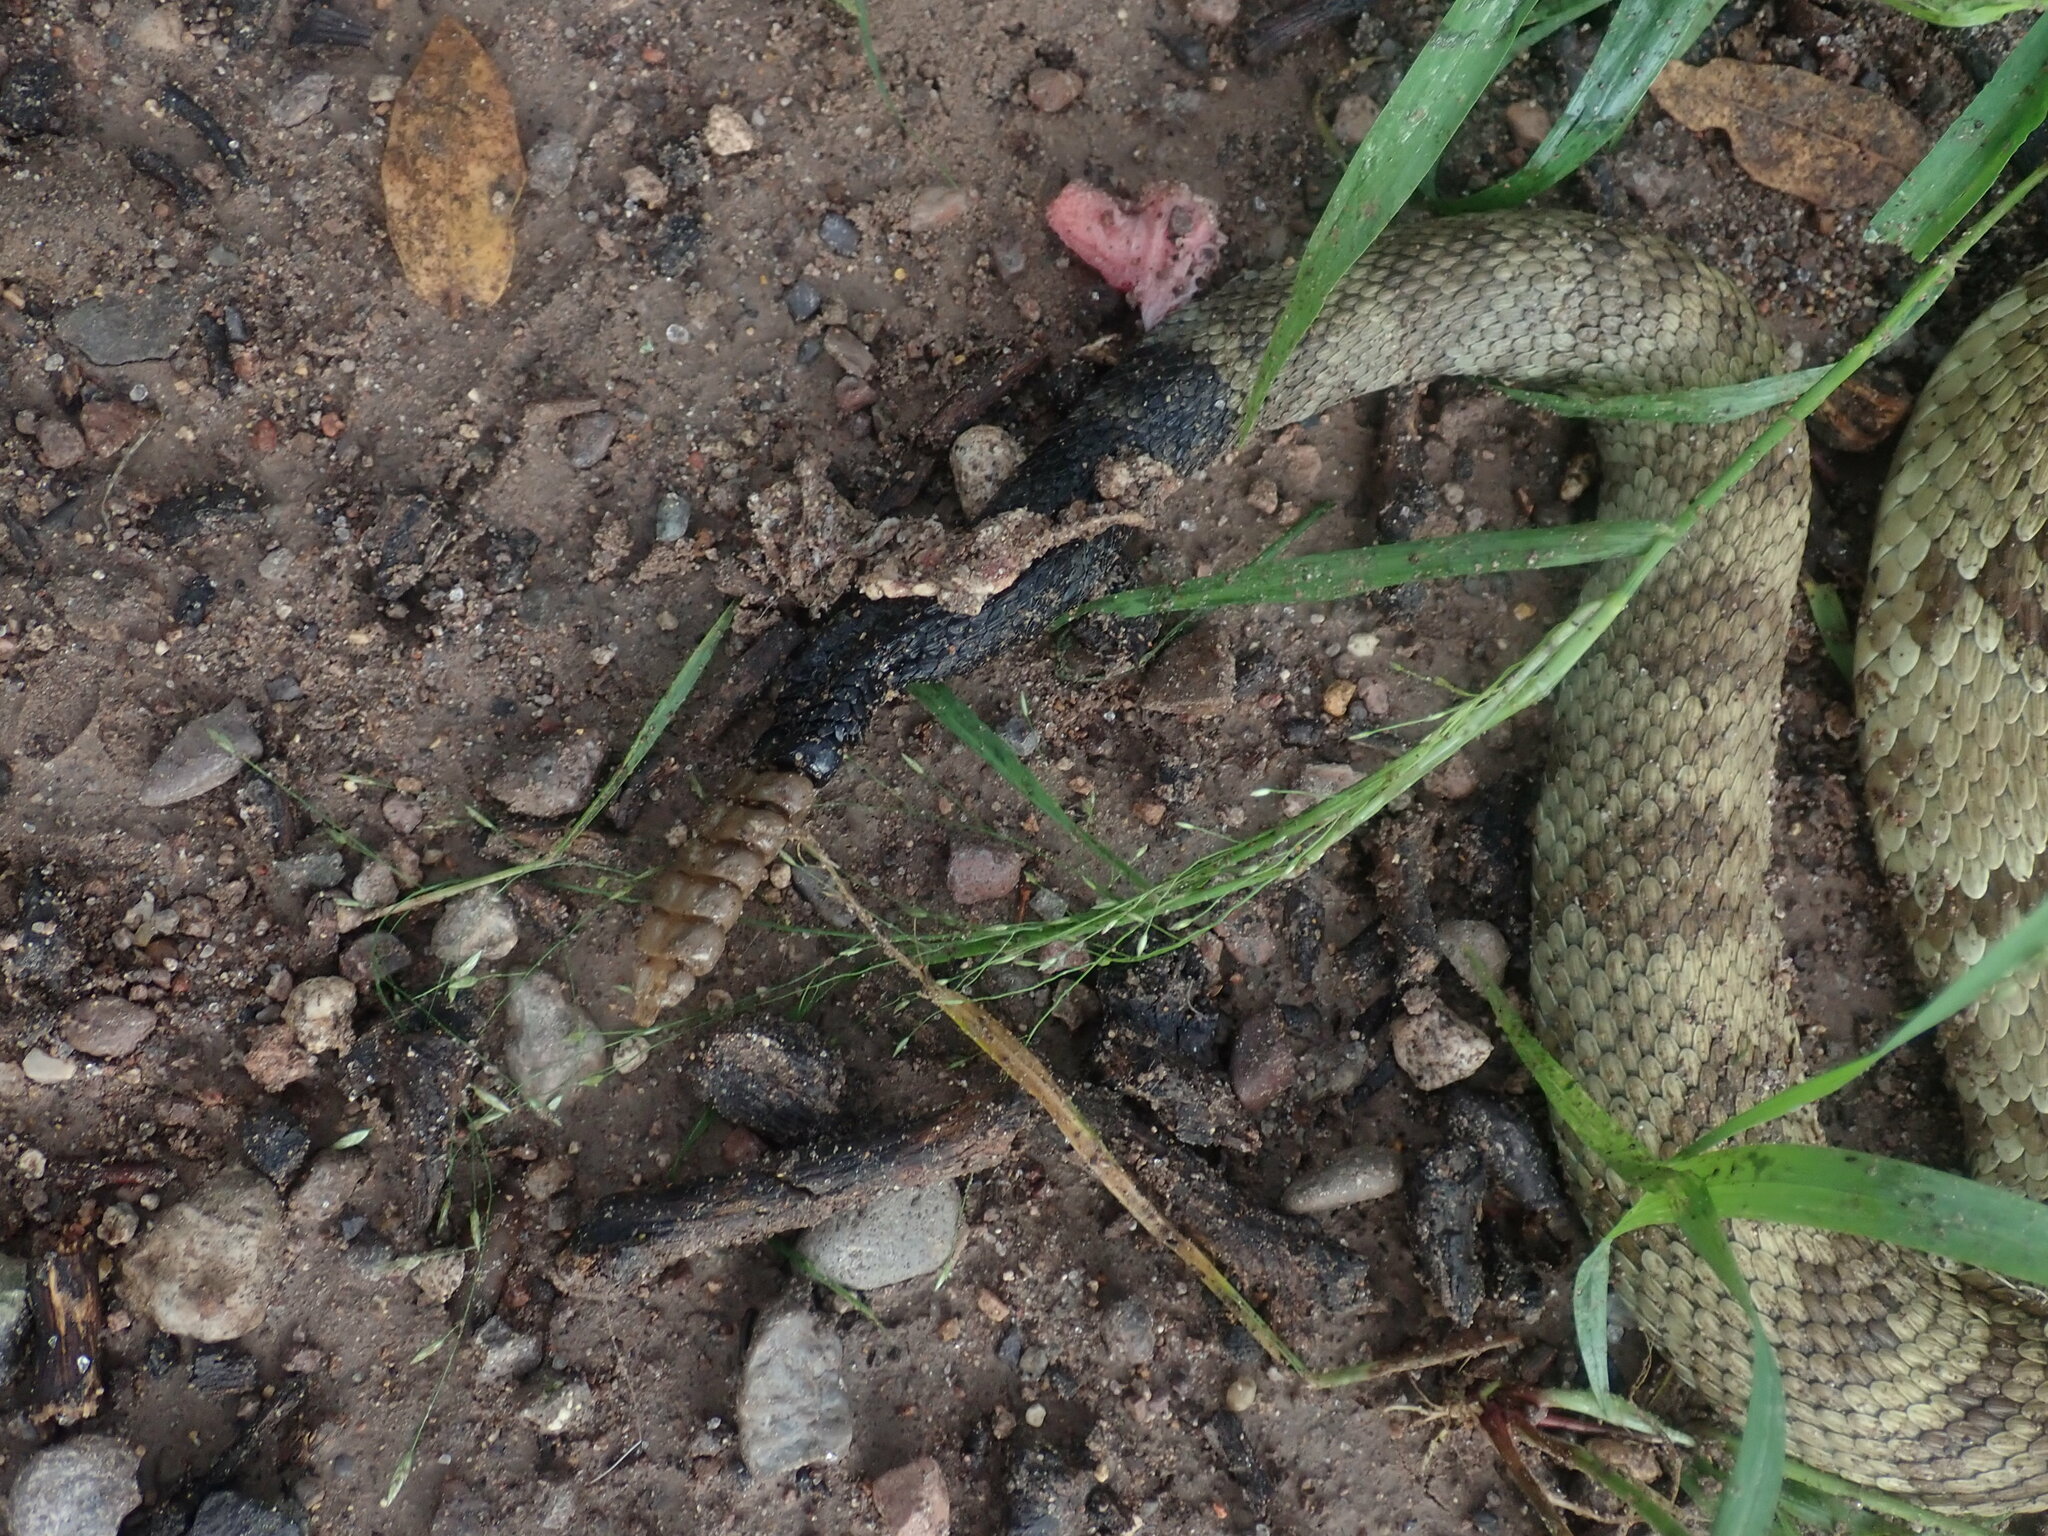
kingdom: Animalia
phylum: Chordata
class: Squamata
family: Viperidae
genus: Crotalus
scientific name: Crotalus molossus
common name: Black tailed rattlesnake
